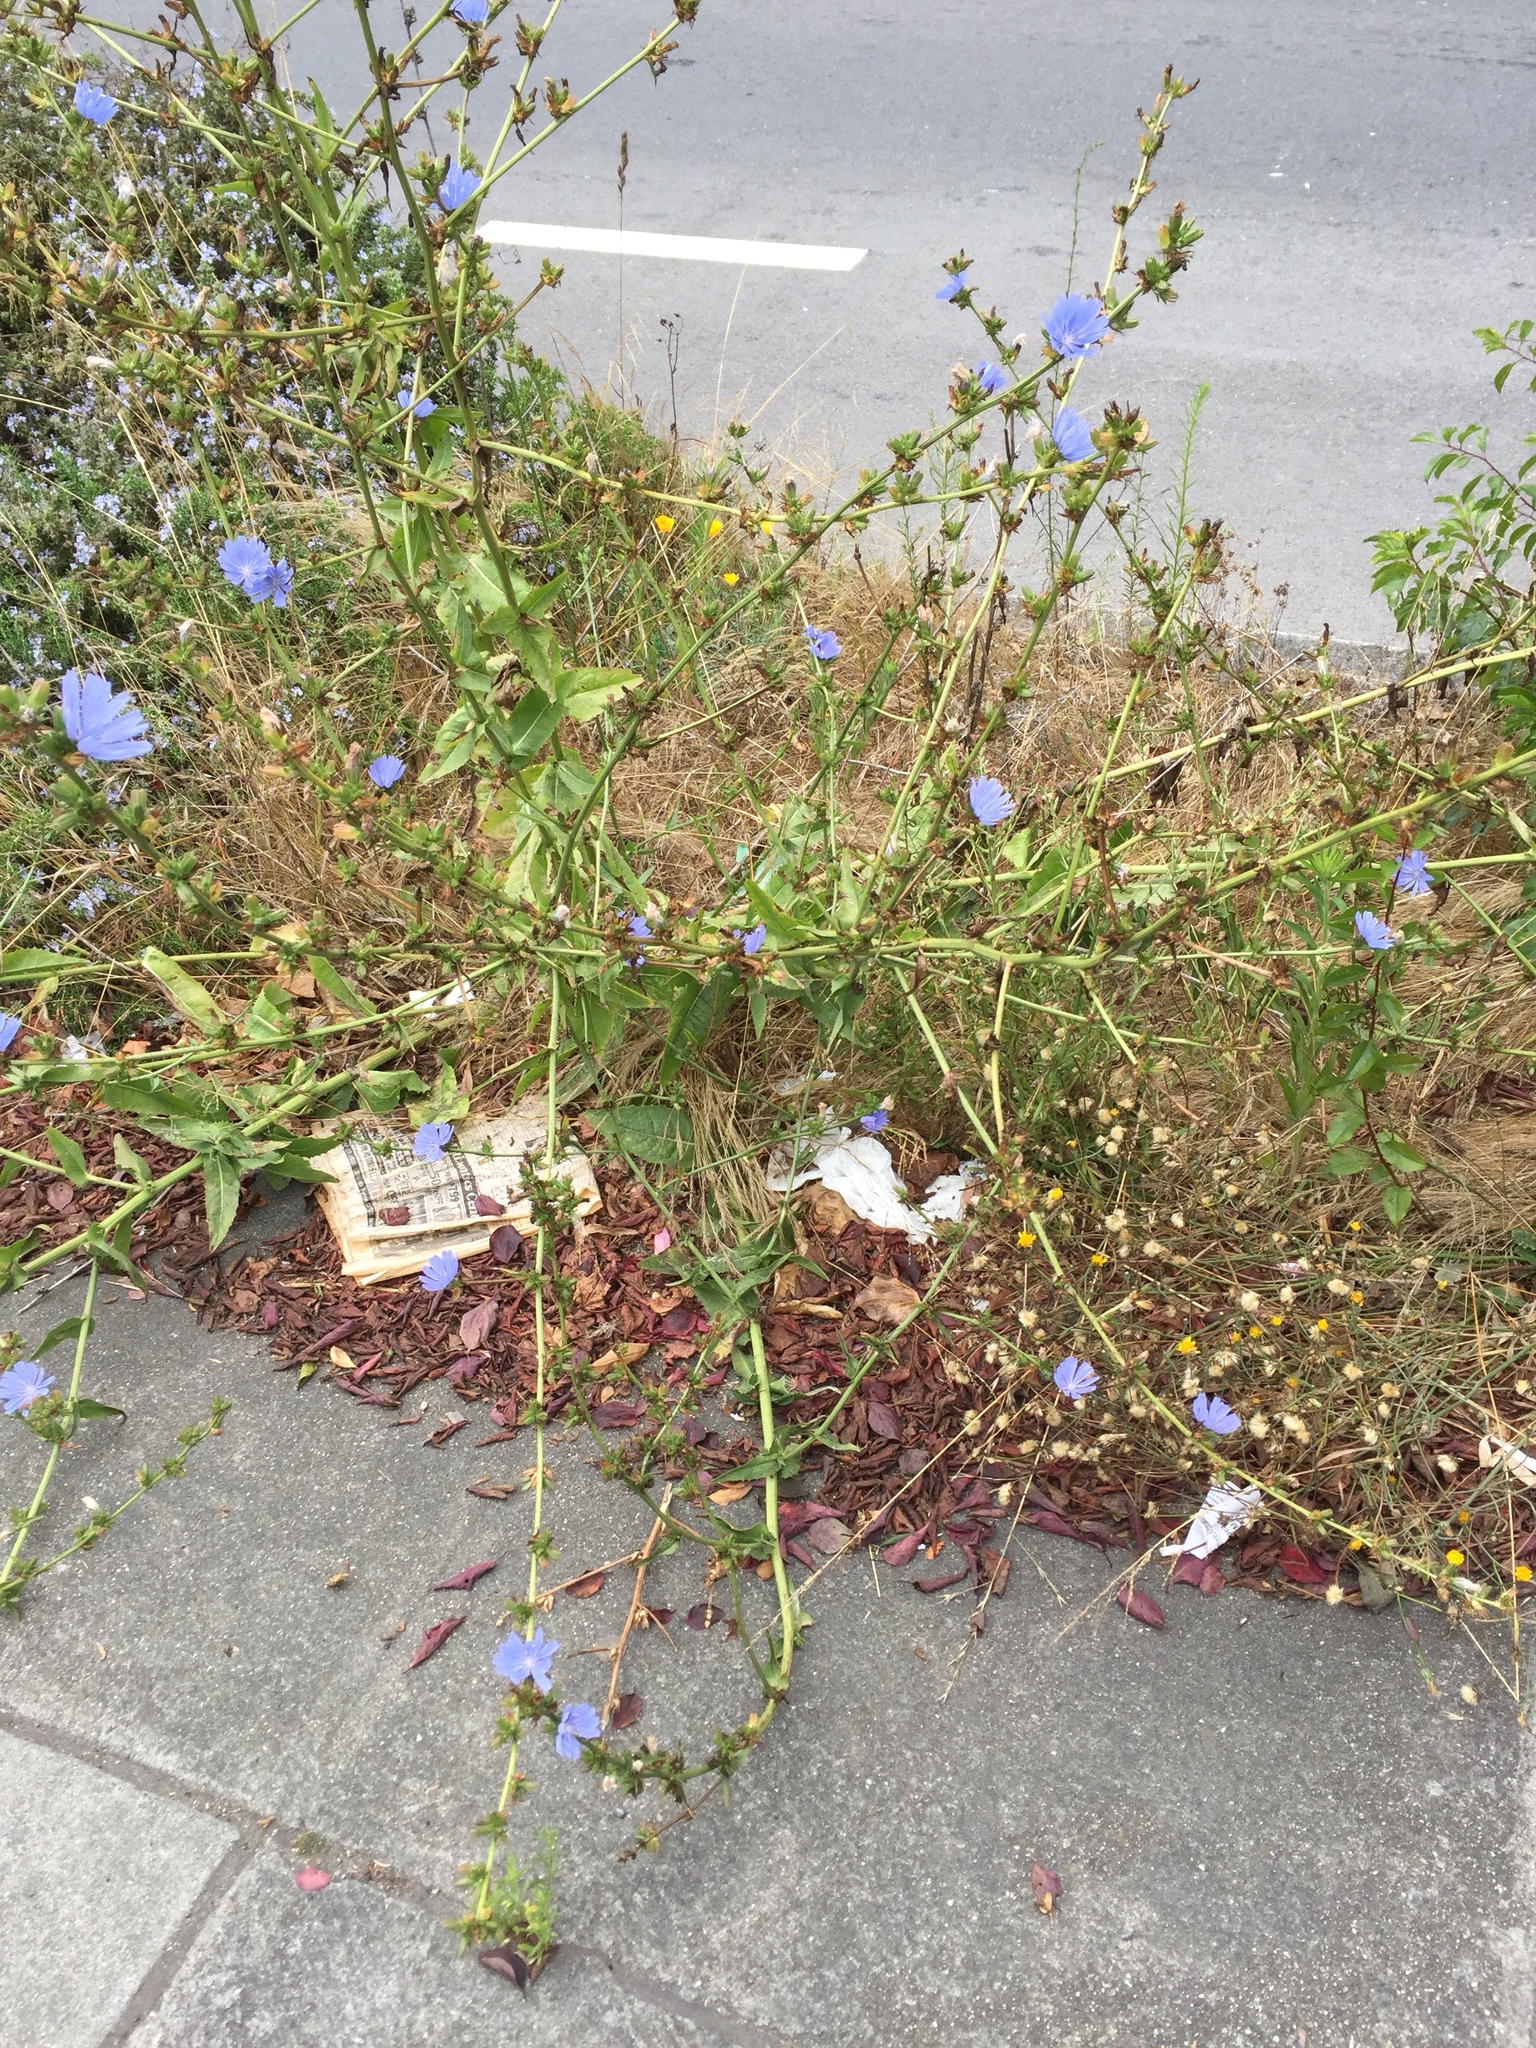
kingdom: Plantae
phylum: Tracheophyta
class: Magnoliopsida
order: Asterales
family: Asteraceae
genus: Cichorium
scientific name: Cichorium intybus
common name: Chicory
